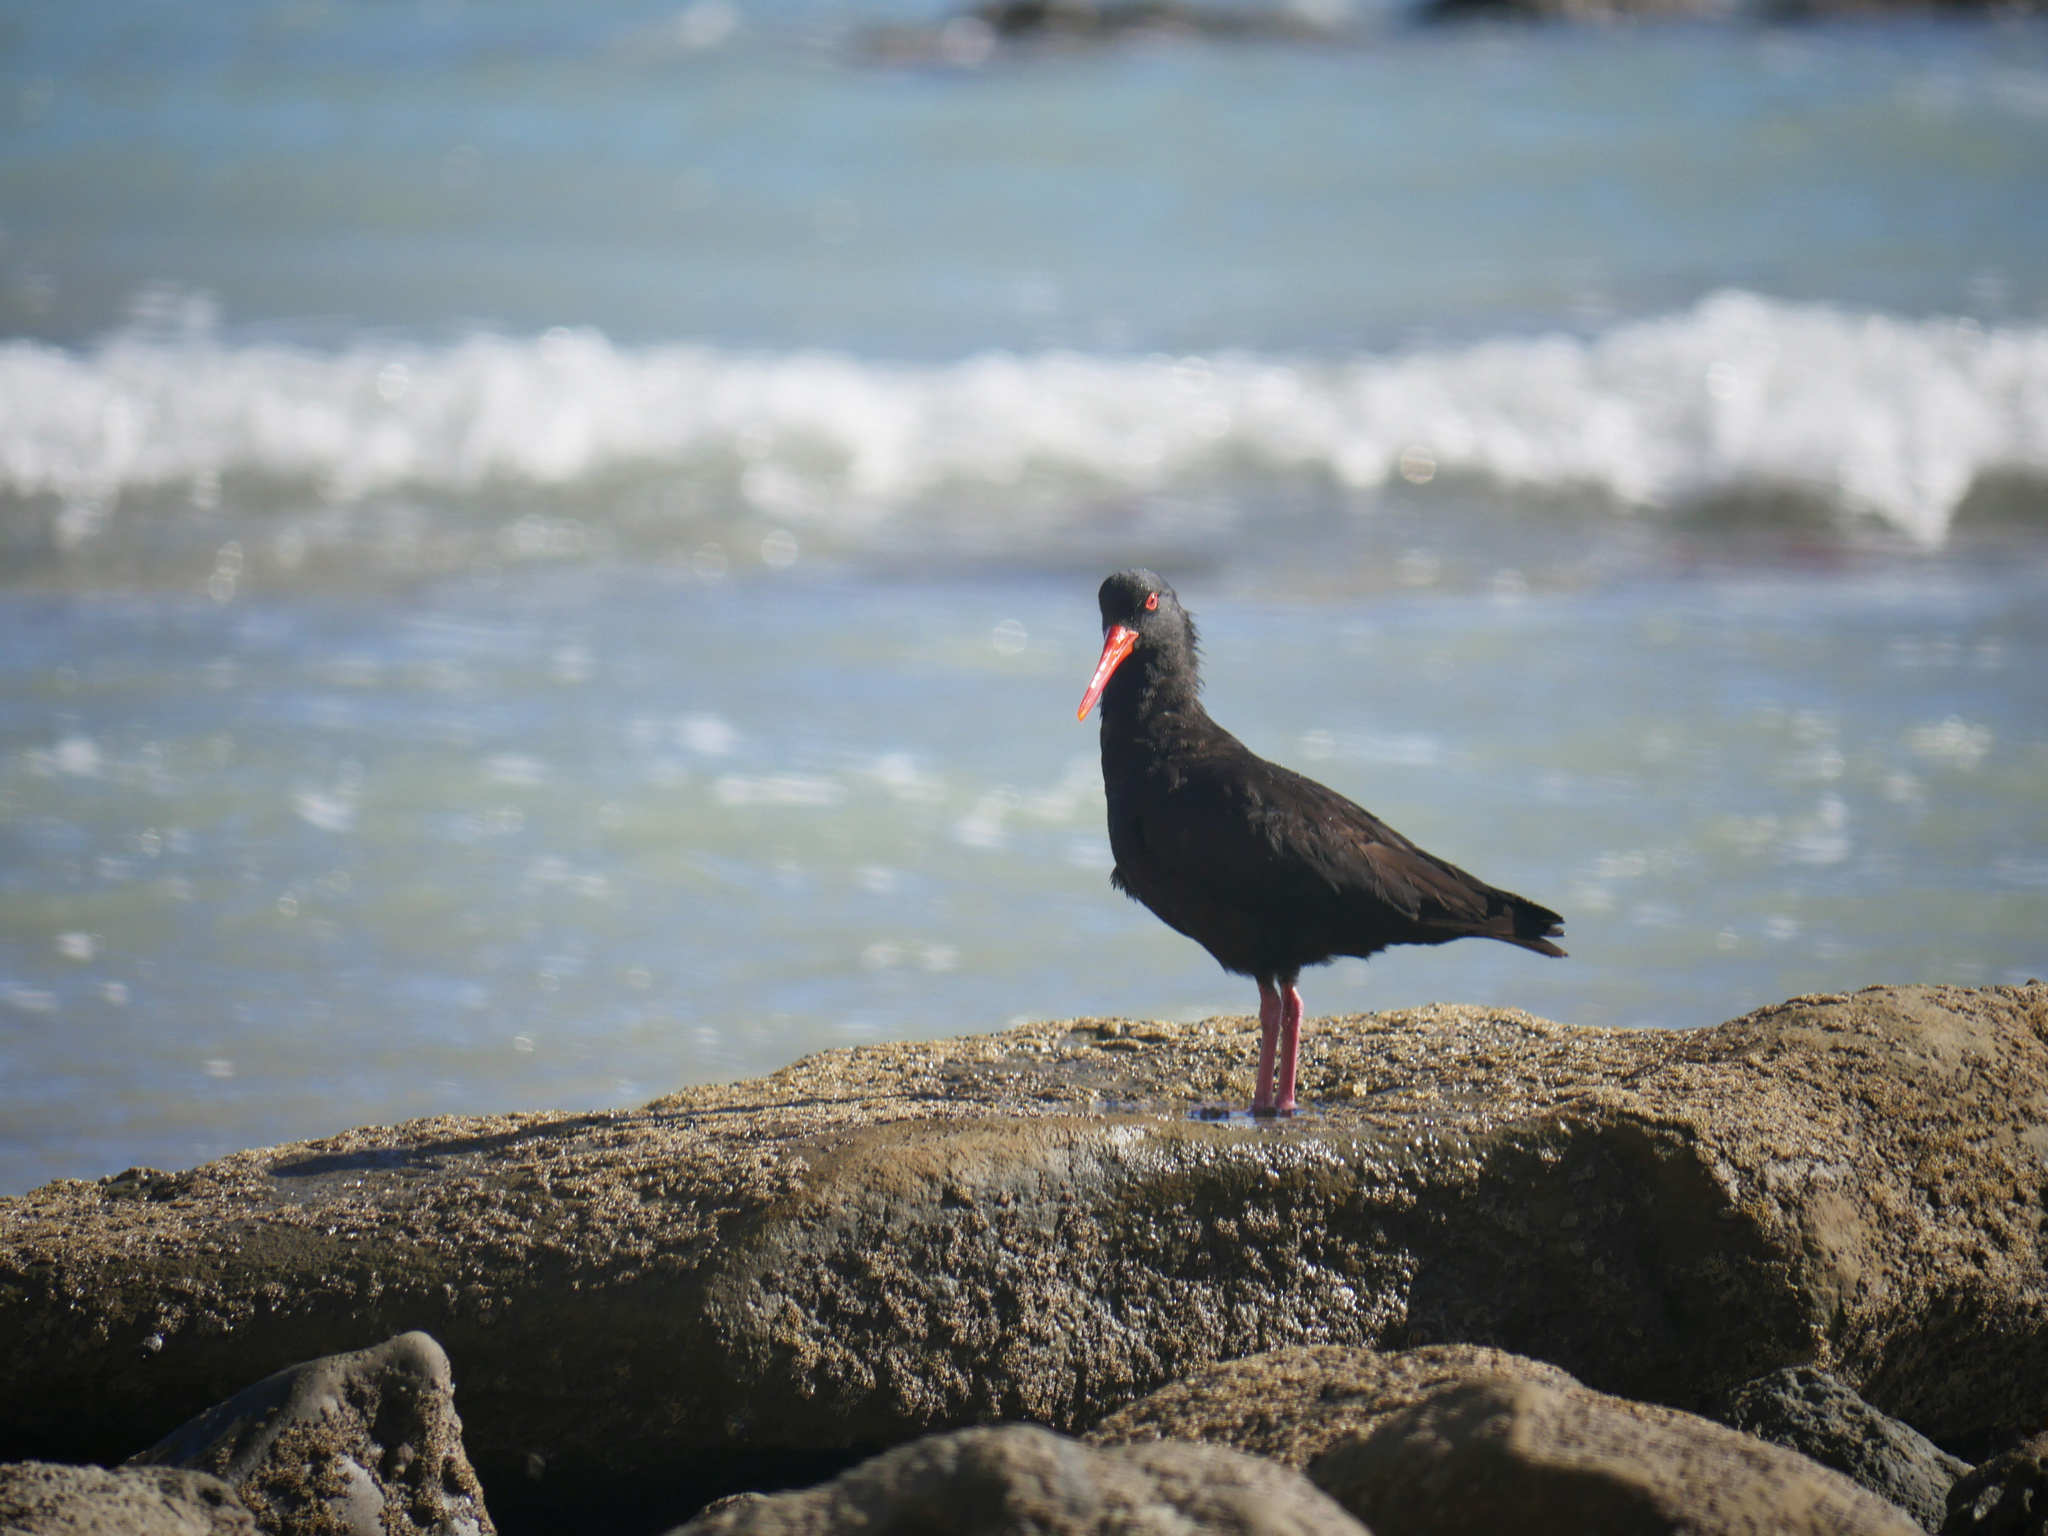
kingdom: Animalia
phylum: Chordata
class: Aves
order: Charadriiformes
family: Haematopodidae
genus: Haematopus
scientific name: Haematopus unicolor
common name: Variable oystercatcher
